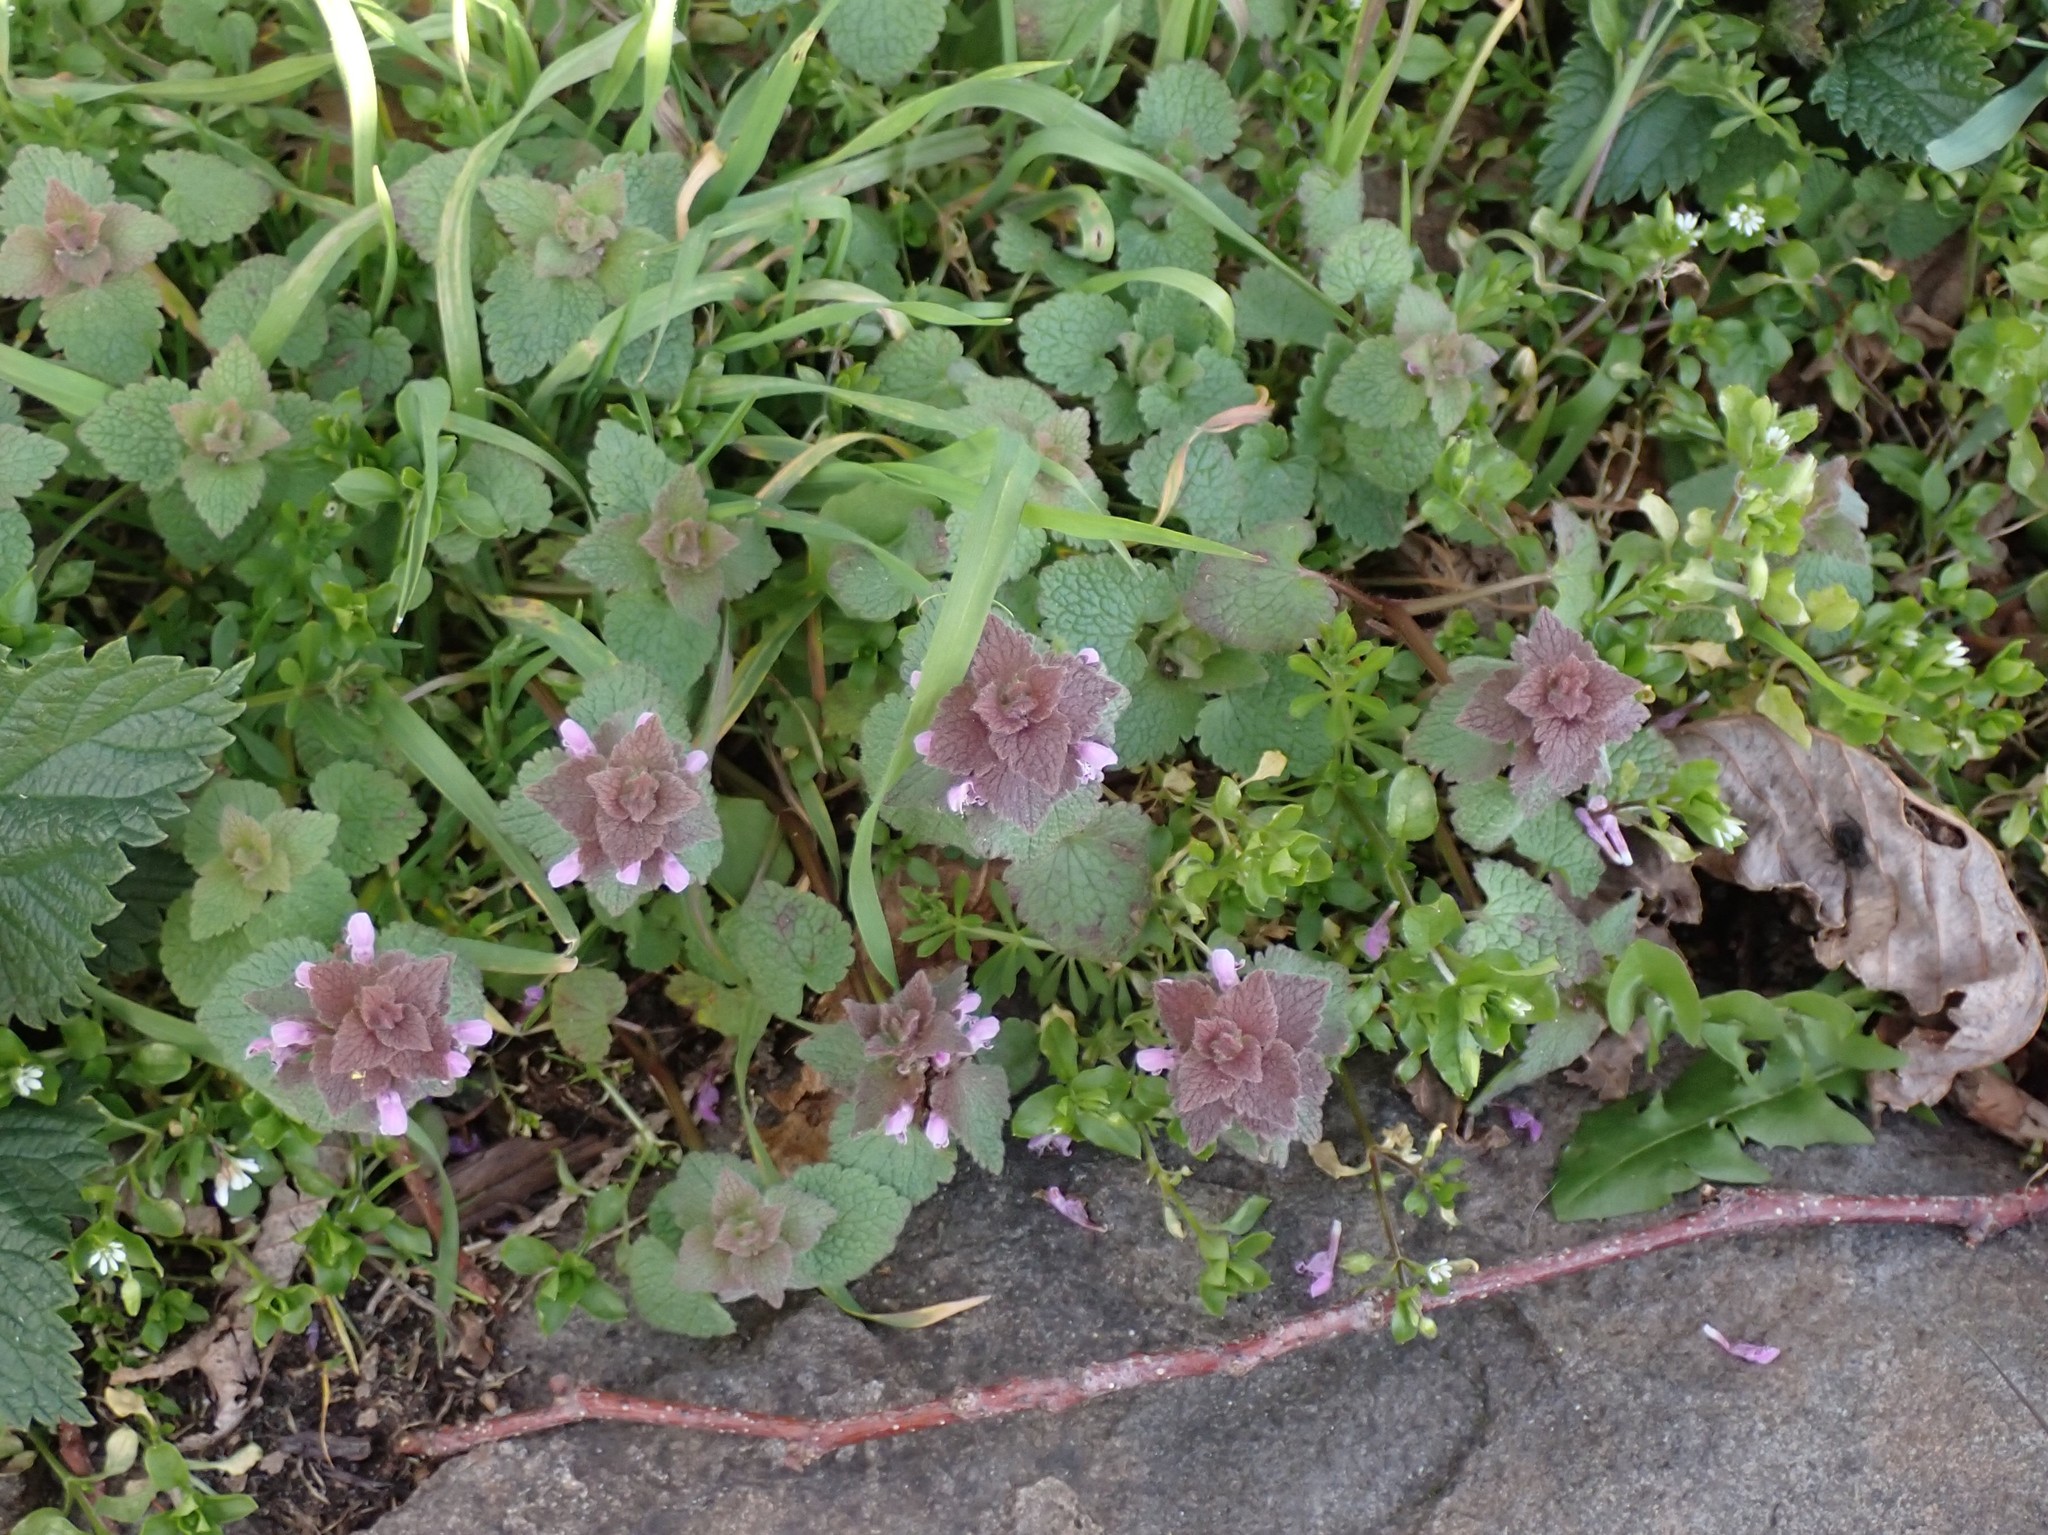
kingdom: Plantae
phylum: Tracheophyta
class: Magnoliopsida
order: Lamiales
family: Lamiaceae
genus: Lamium
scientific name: Lamium purpureum
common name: Red dead-nettle
